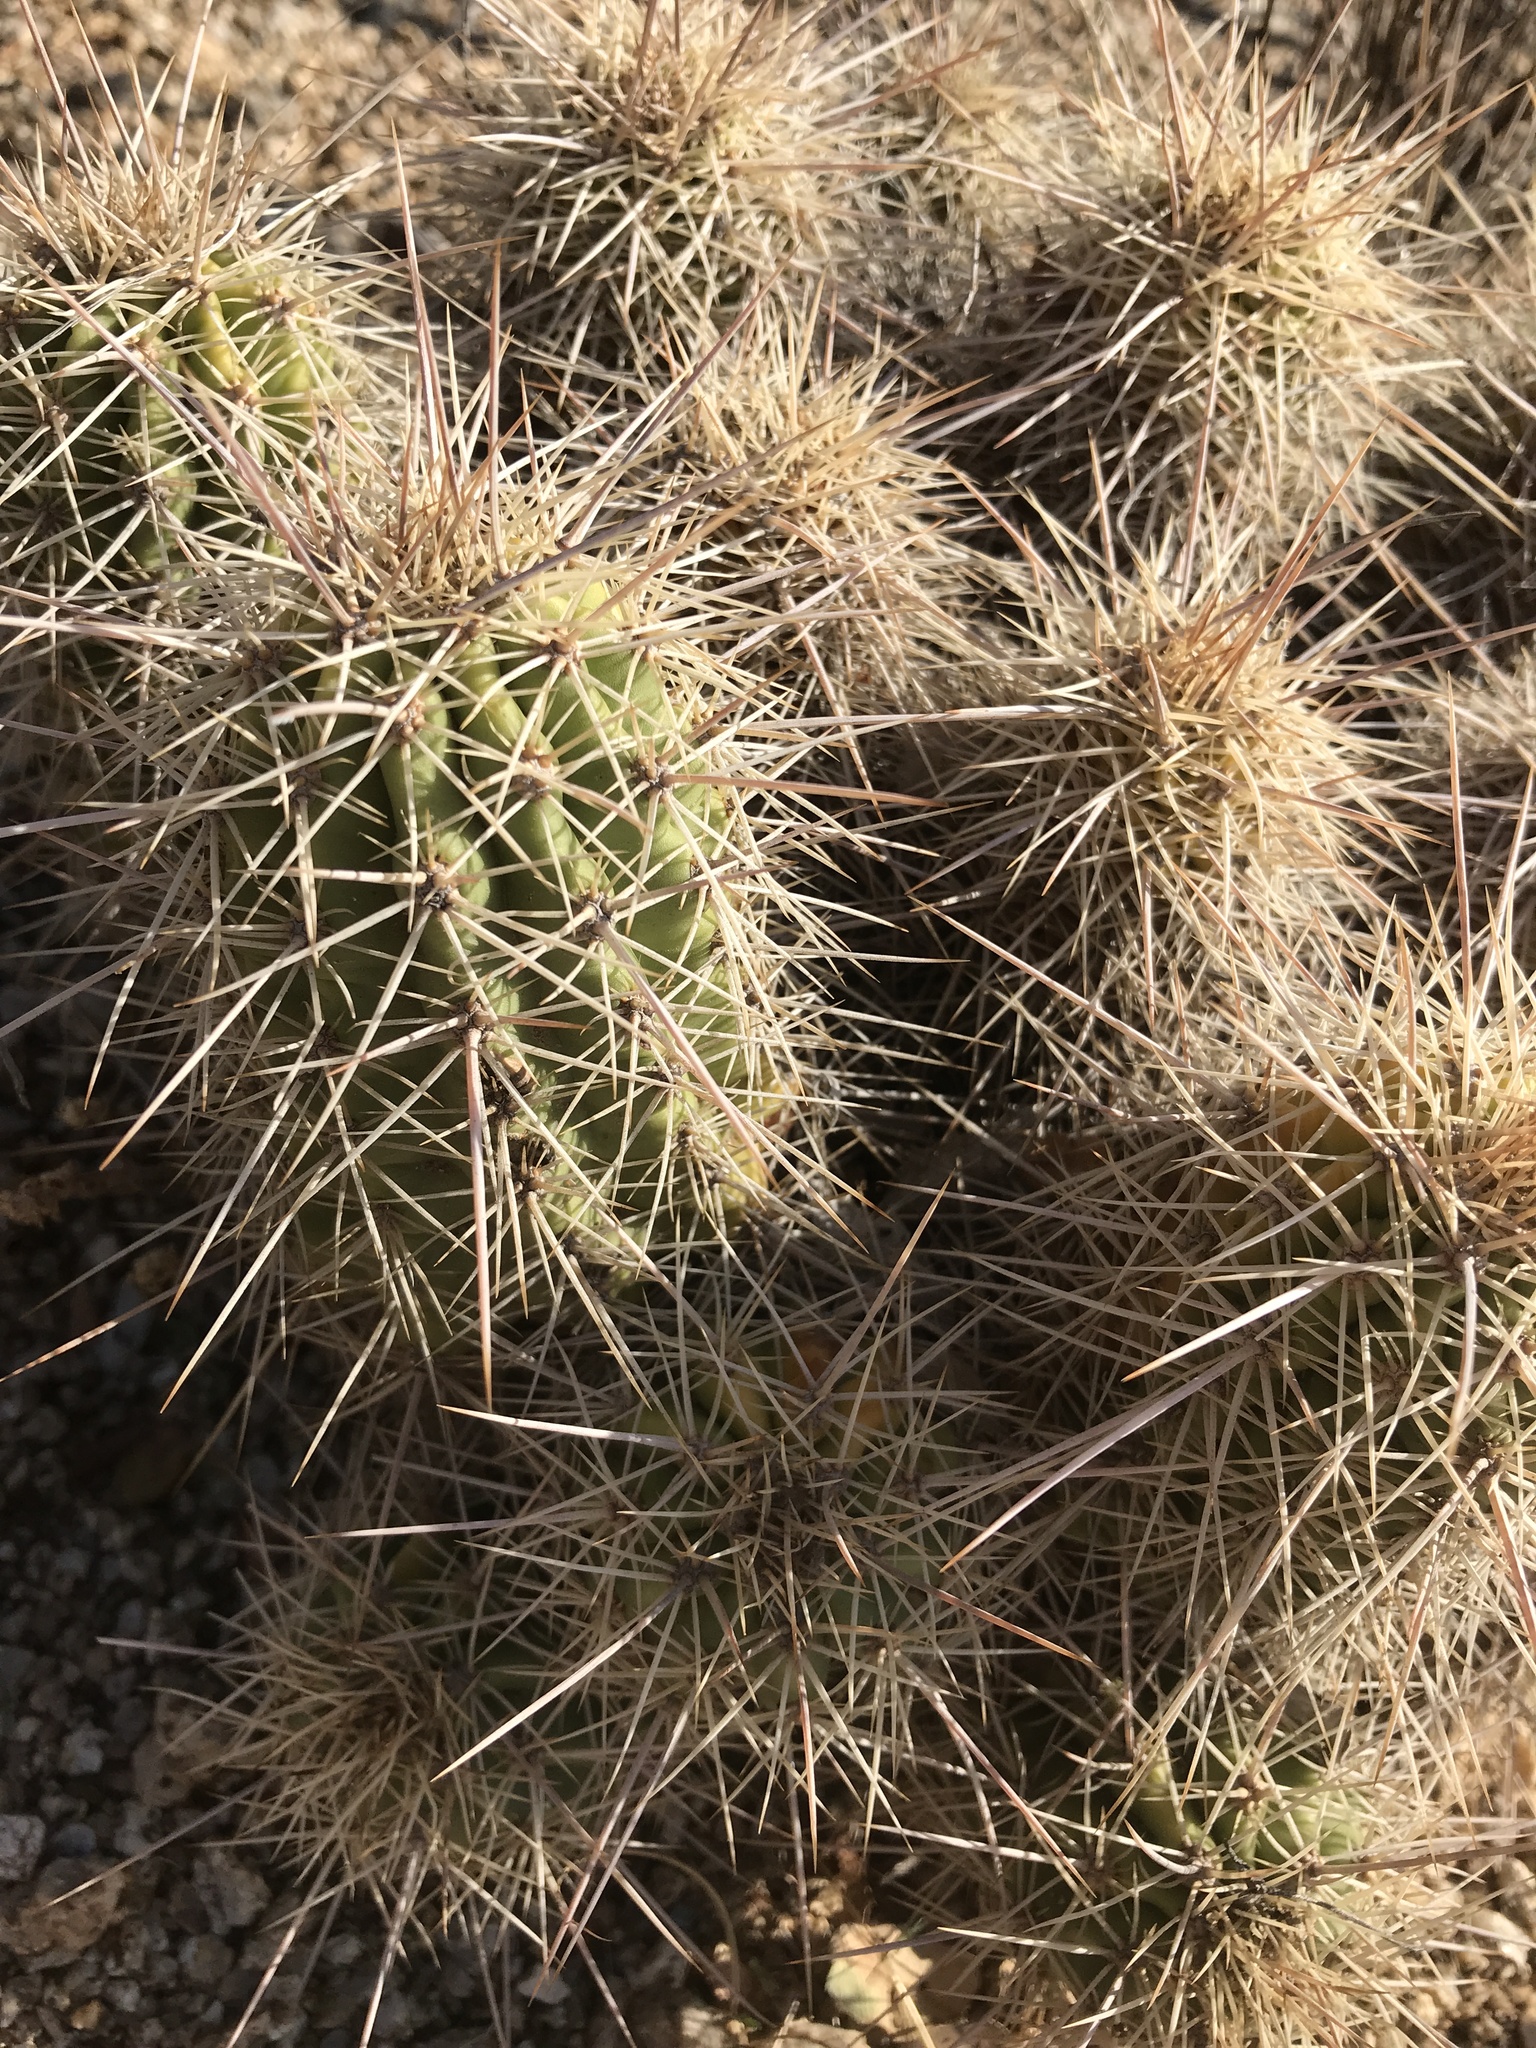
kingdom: Plantae
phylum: Tracheophyta
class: Magnoliopsida
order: Caryophyllales
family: Cactaceae
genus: Echinocereus
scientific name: Echinocereus coccineus
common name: Scarlet hedgehog cactus
